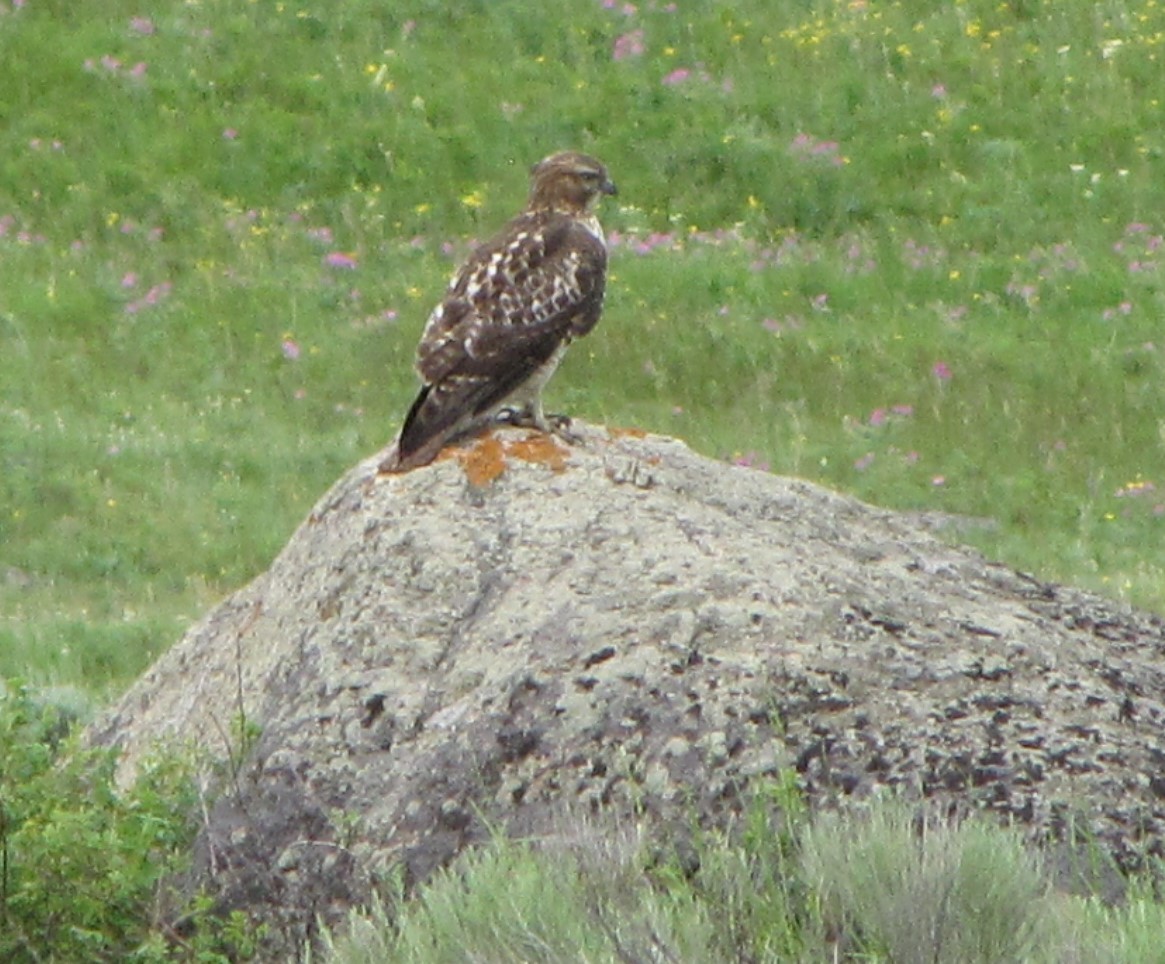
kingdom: Animalia
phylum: Chordata
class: Aves
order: Accipitriformes
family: Accipitridae
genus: Buteo
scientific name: Buteo jamaicensis
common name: Red-tailed hawk
